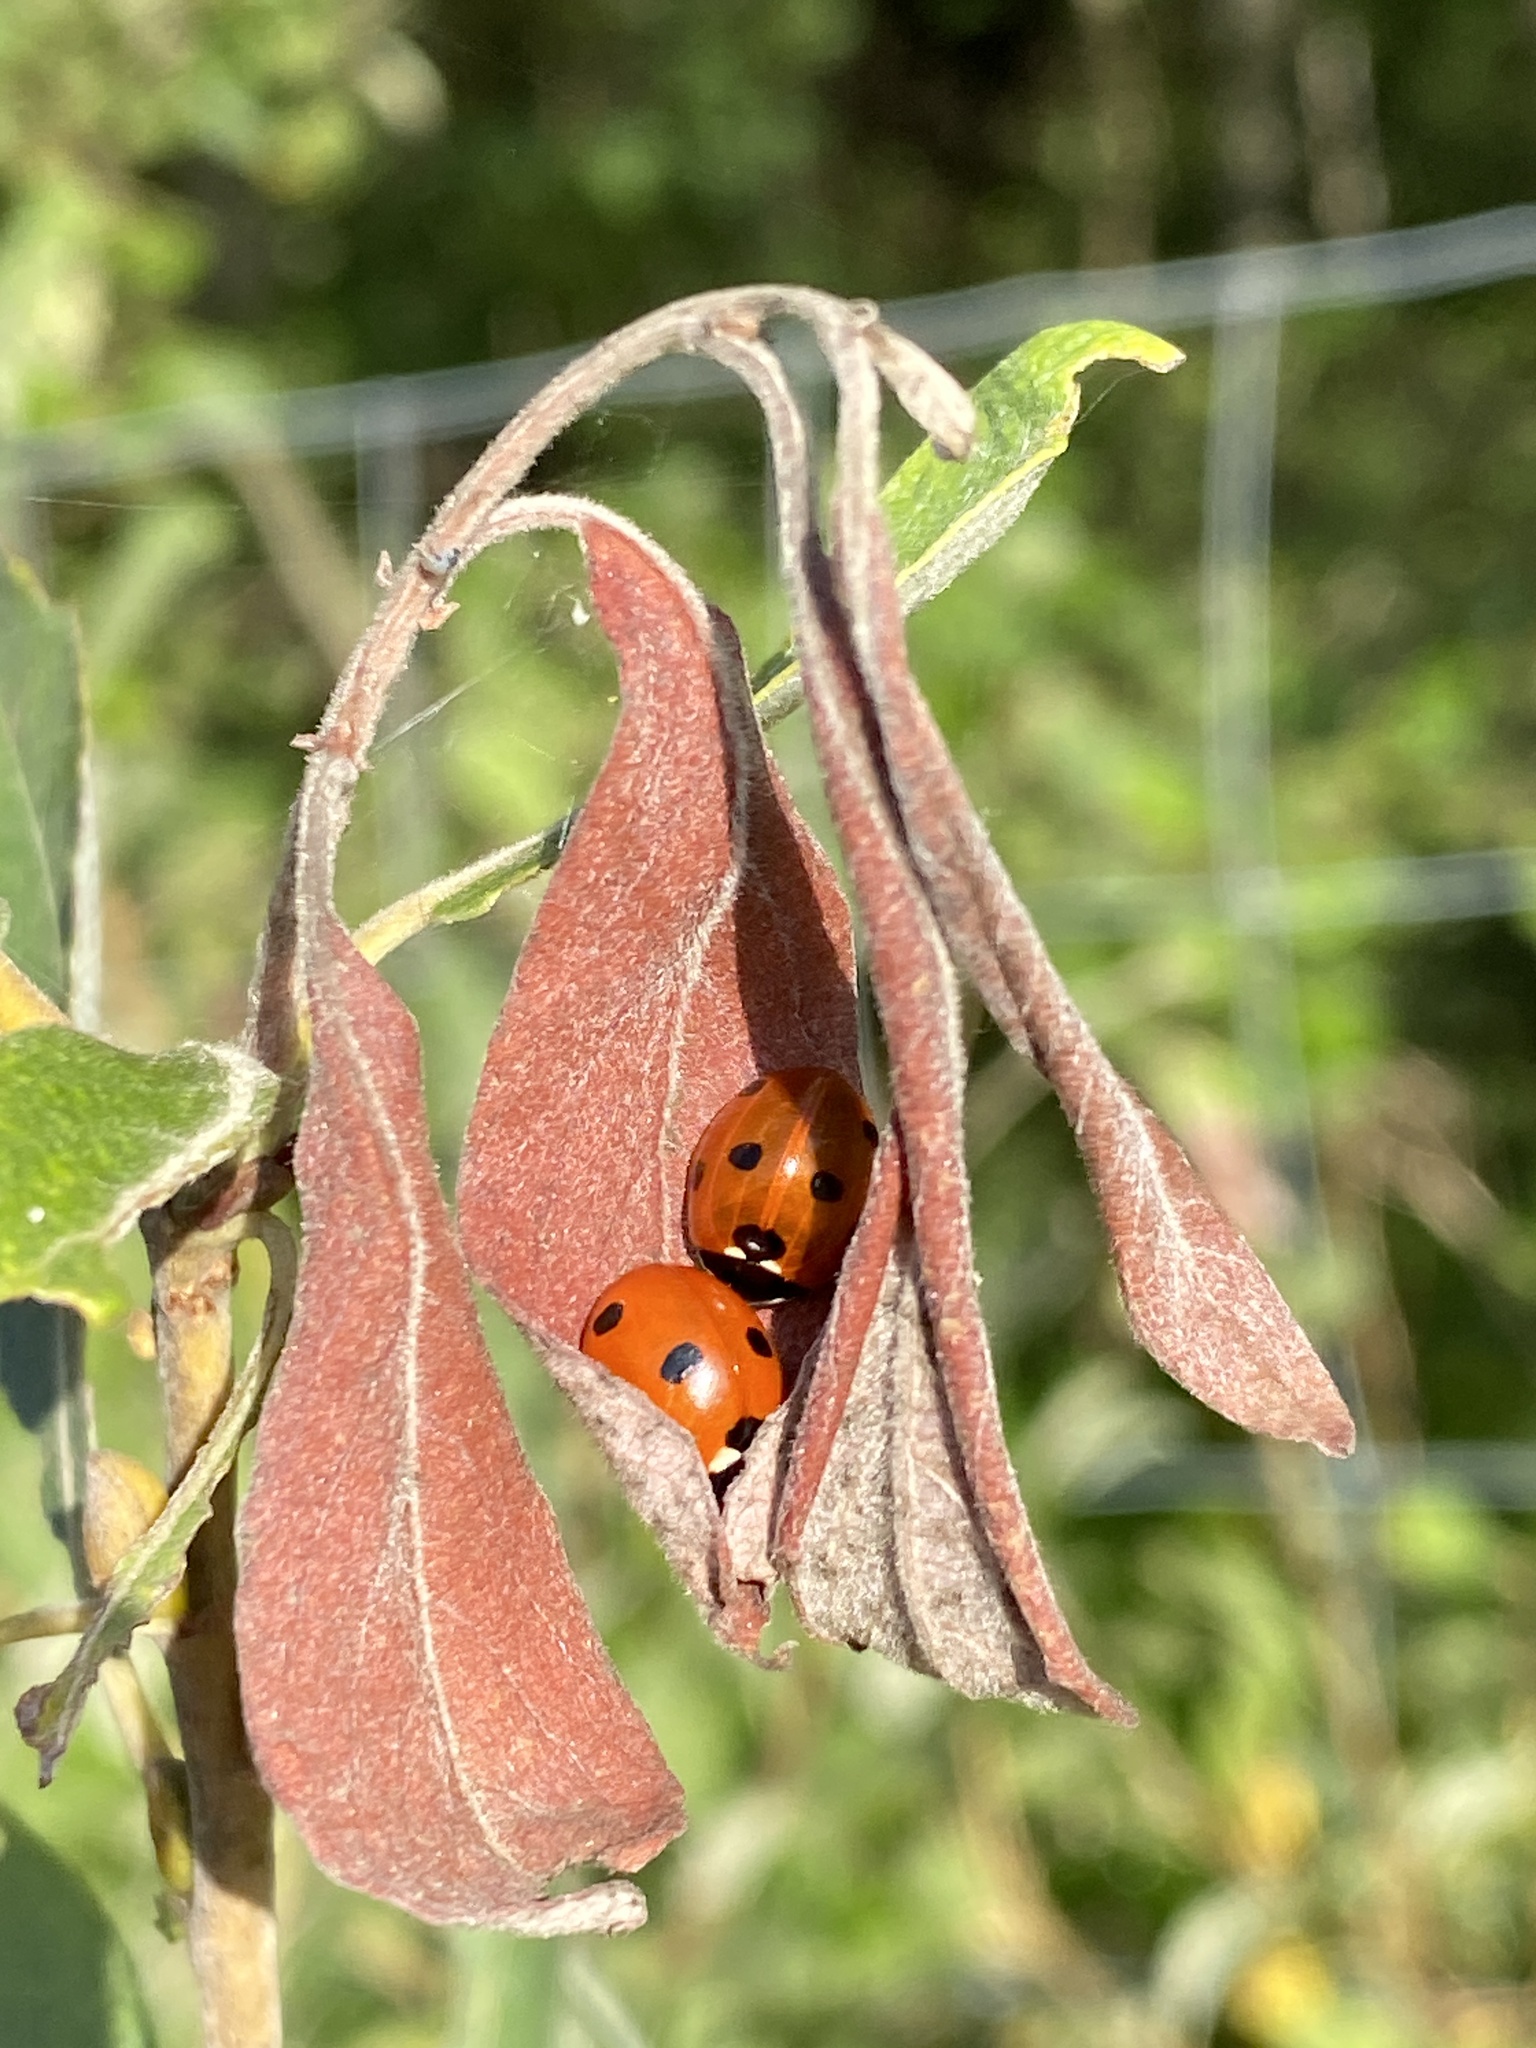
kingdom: Animalia
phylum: Arthropoda
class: Insecta
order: Coleoptera
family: Coccinellidae
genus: Coccinella
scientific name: Coccinella septempunctata
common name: Sevenspotted lady beetle
